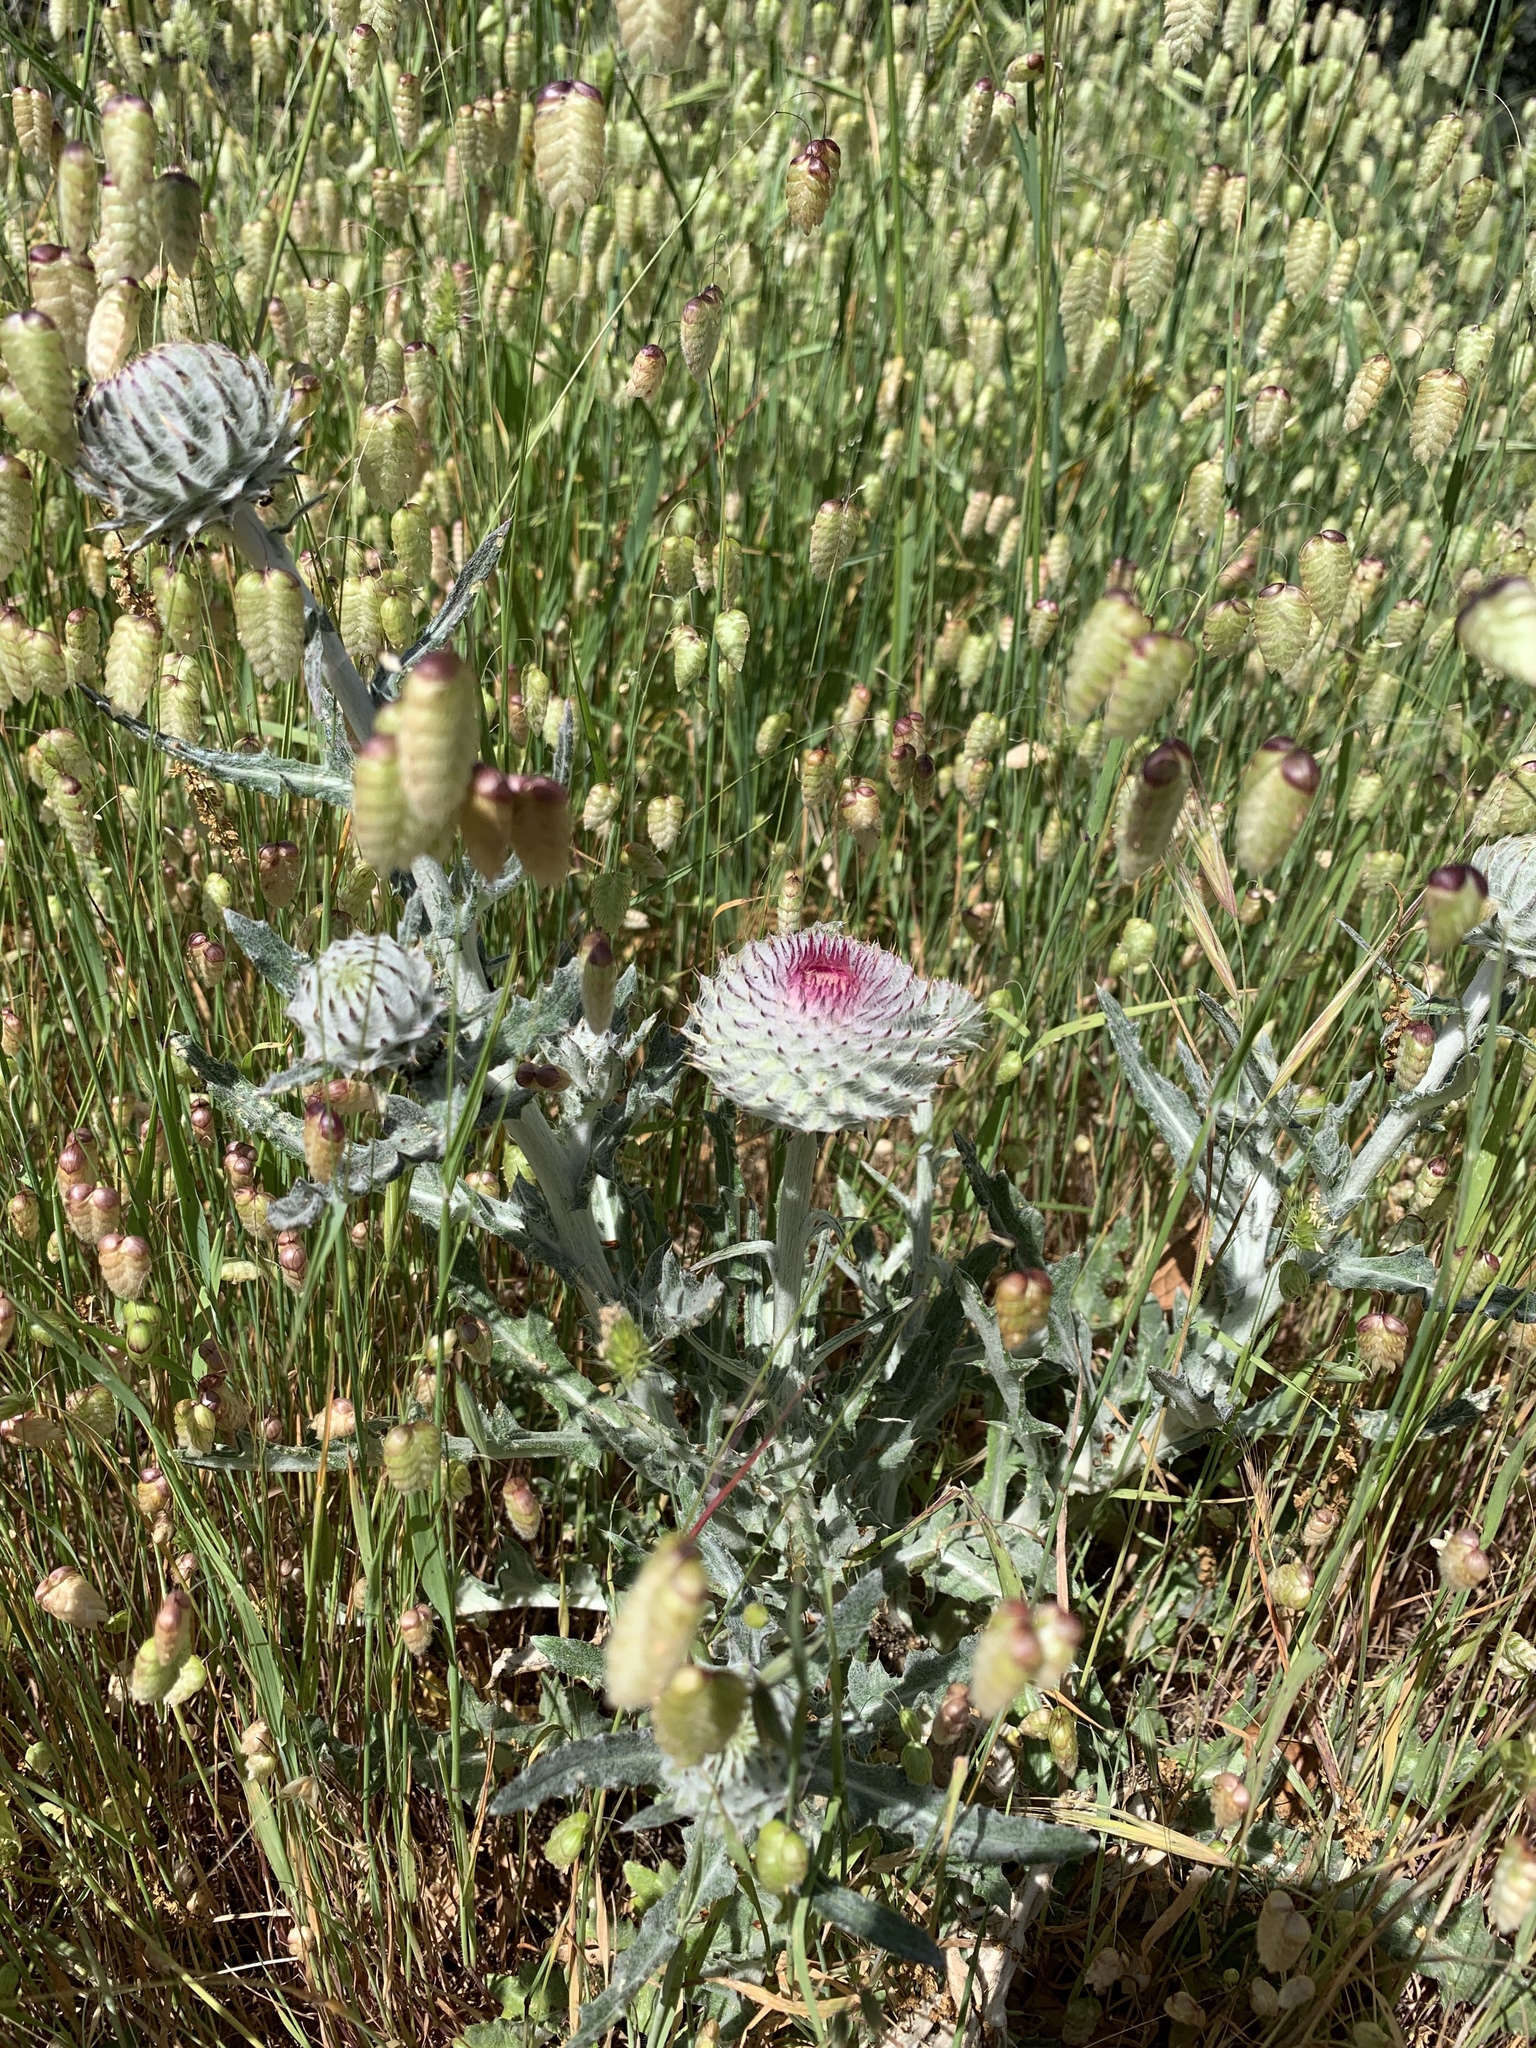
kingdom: Plantae
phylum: Tracheophyta
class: Magnoliopsida
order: Asterales
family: Asteraceae
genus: Cirsium
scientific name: Cirsium occidentale
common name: Western thistle
